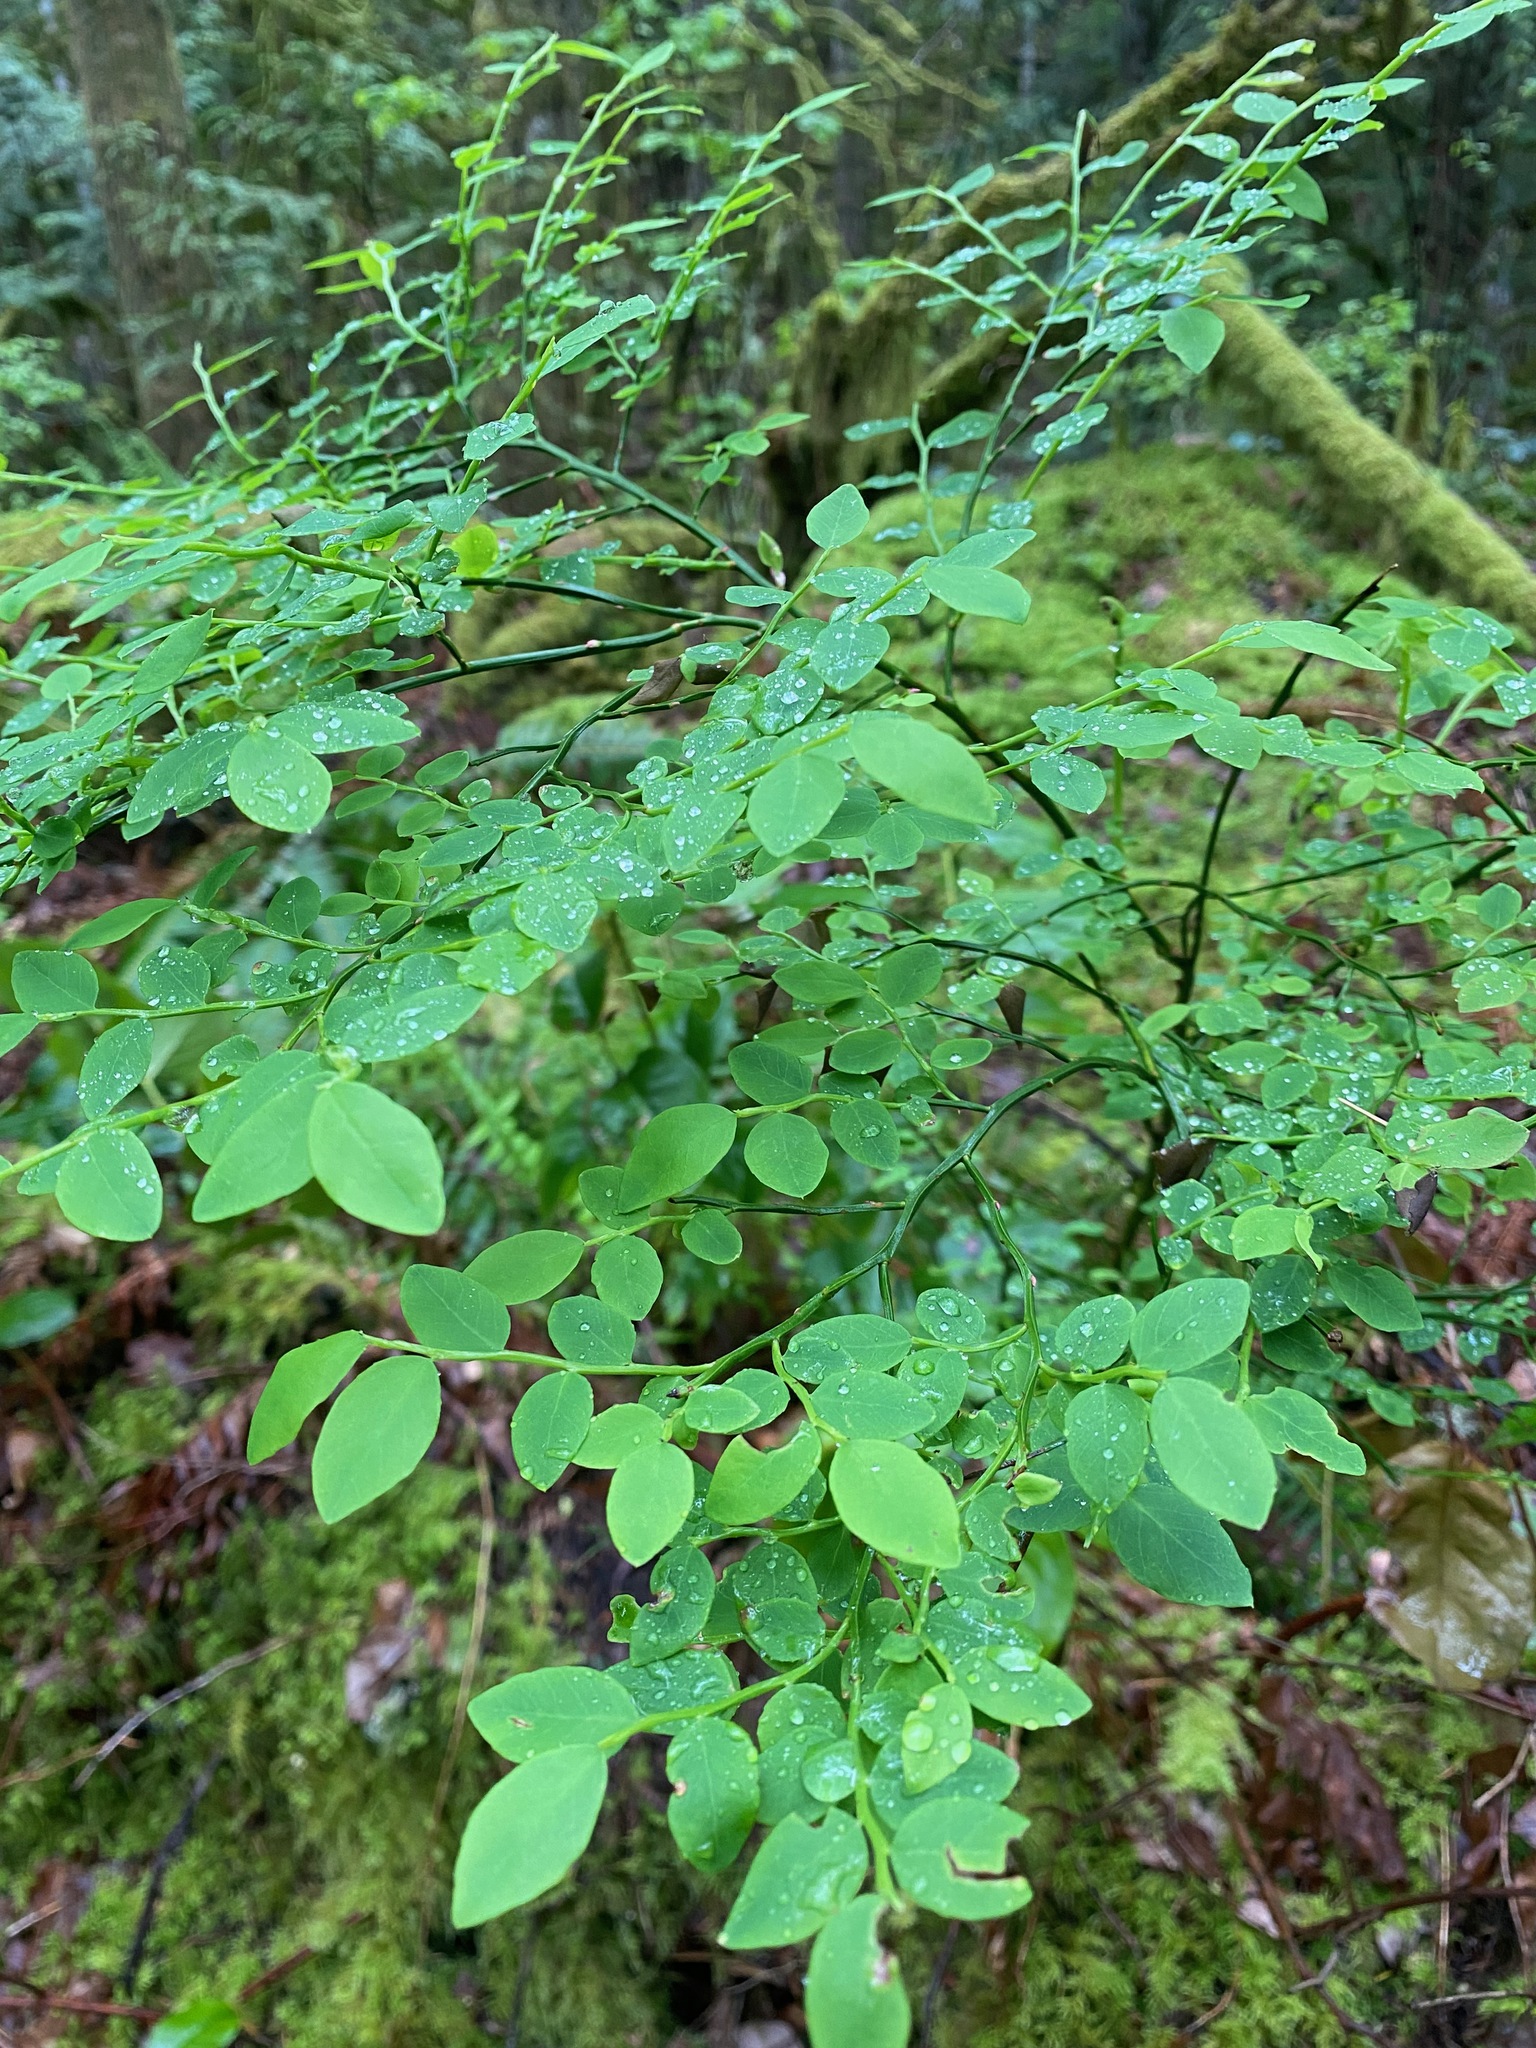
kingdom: Plantae
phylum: Tracheophyta
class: Magnoliopsida
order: Ericales
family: Ericaceae
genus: Vaccinium
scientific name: Vaccinium parvifolium
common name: Red-huckleberry
